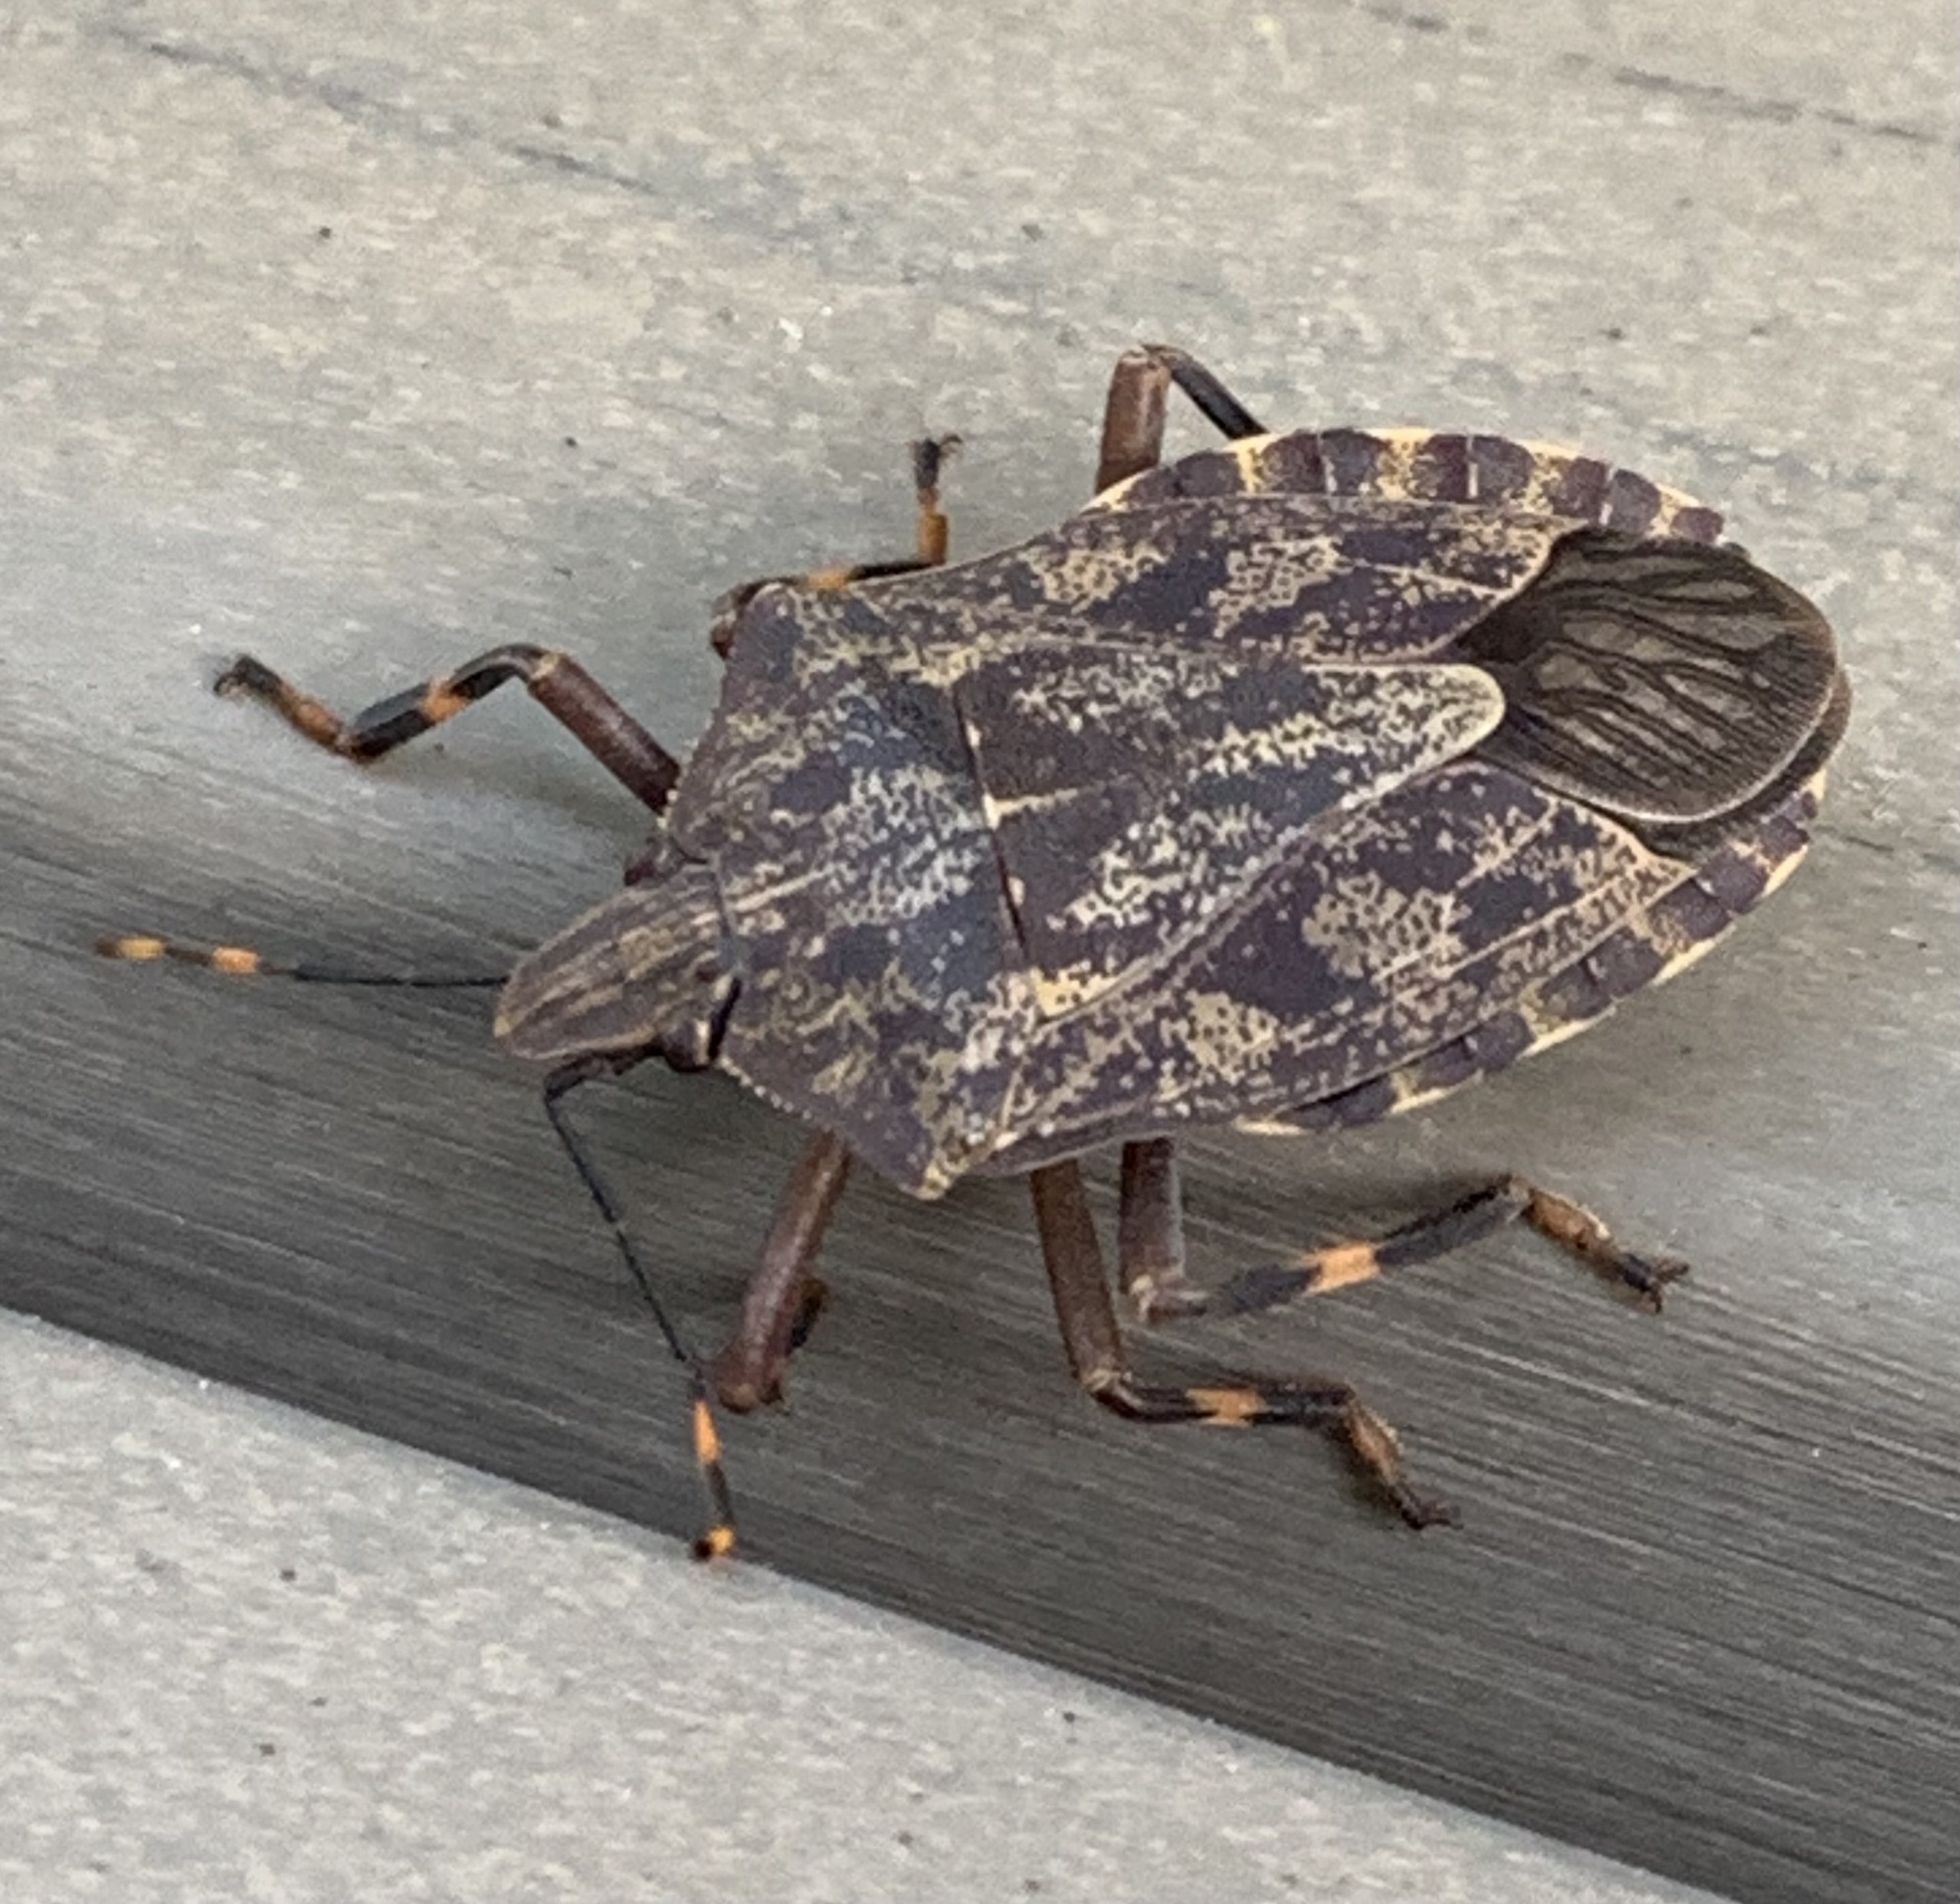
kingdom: Animalia
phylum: Arthropoda
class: Insecta
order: Hemiptera
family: Pentatomidae
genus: Coenomorpha
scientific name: Coenomorpha nervosa
